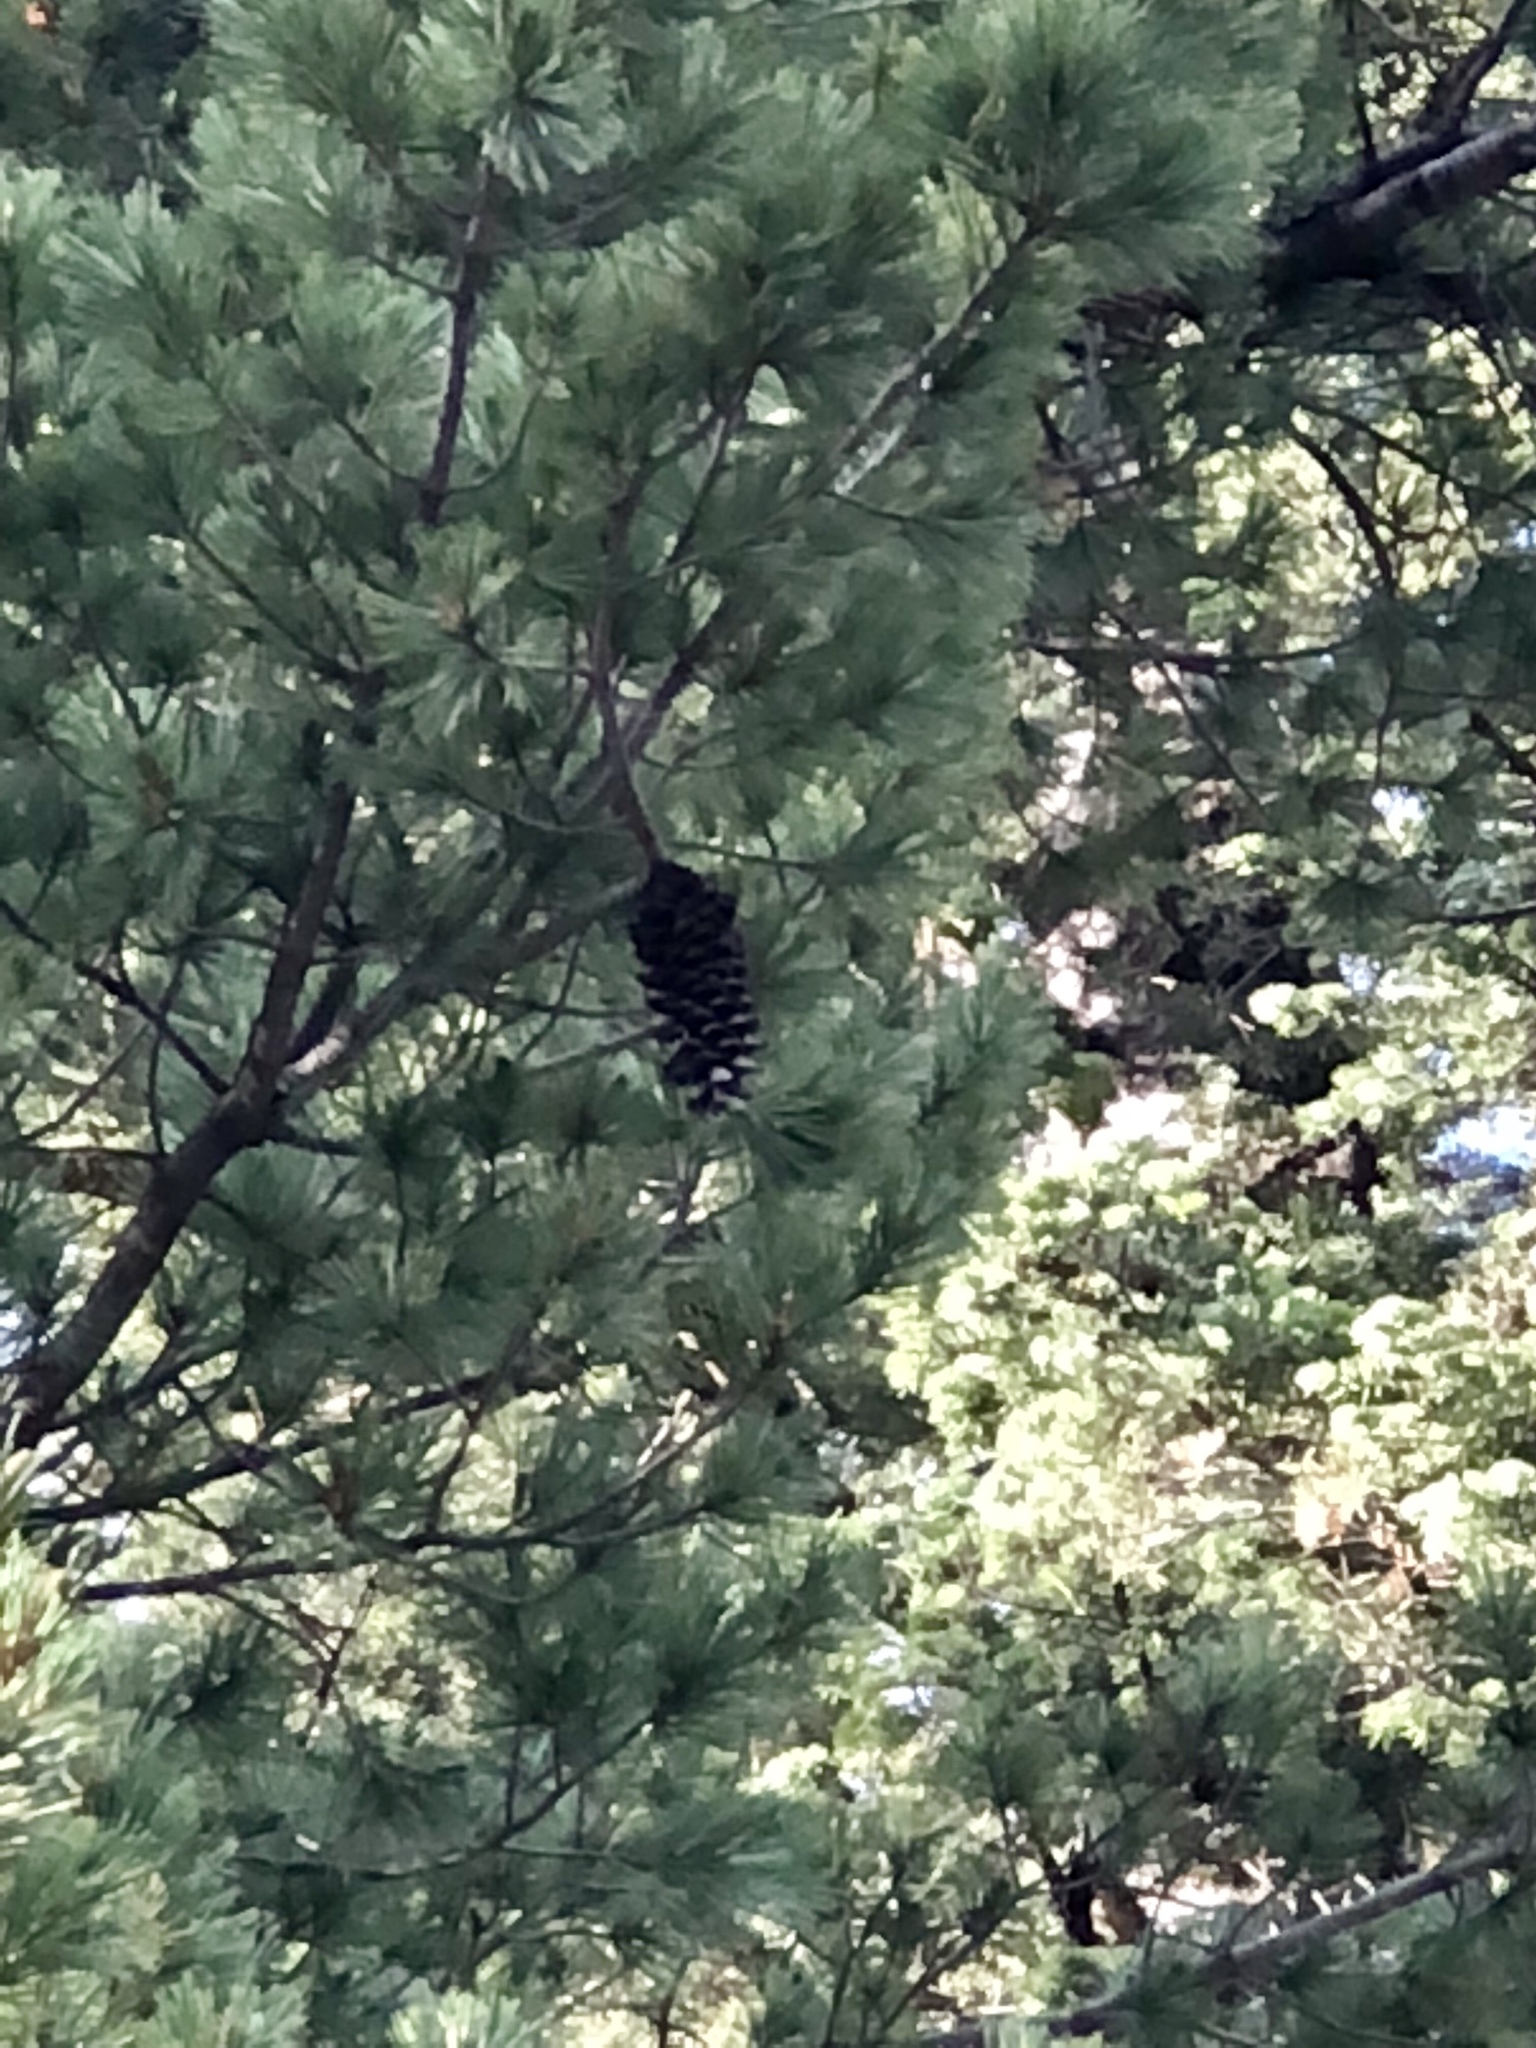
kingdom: Plantae
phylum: Tracheophyta
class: Pinopsida
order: Pinales
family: Pinaceae
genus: Pinus
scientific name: Pinus strobiformis
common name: Southwestern white pine
